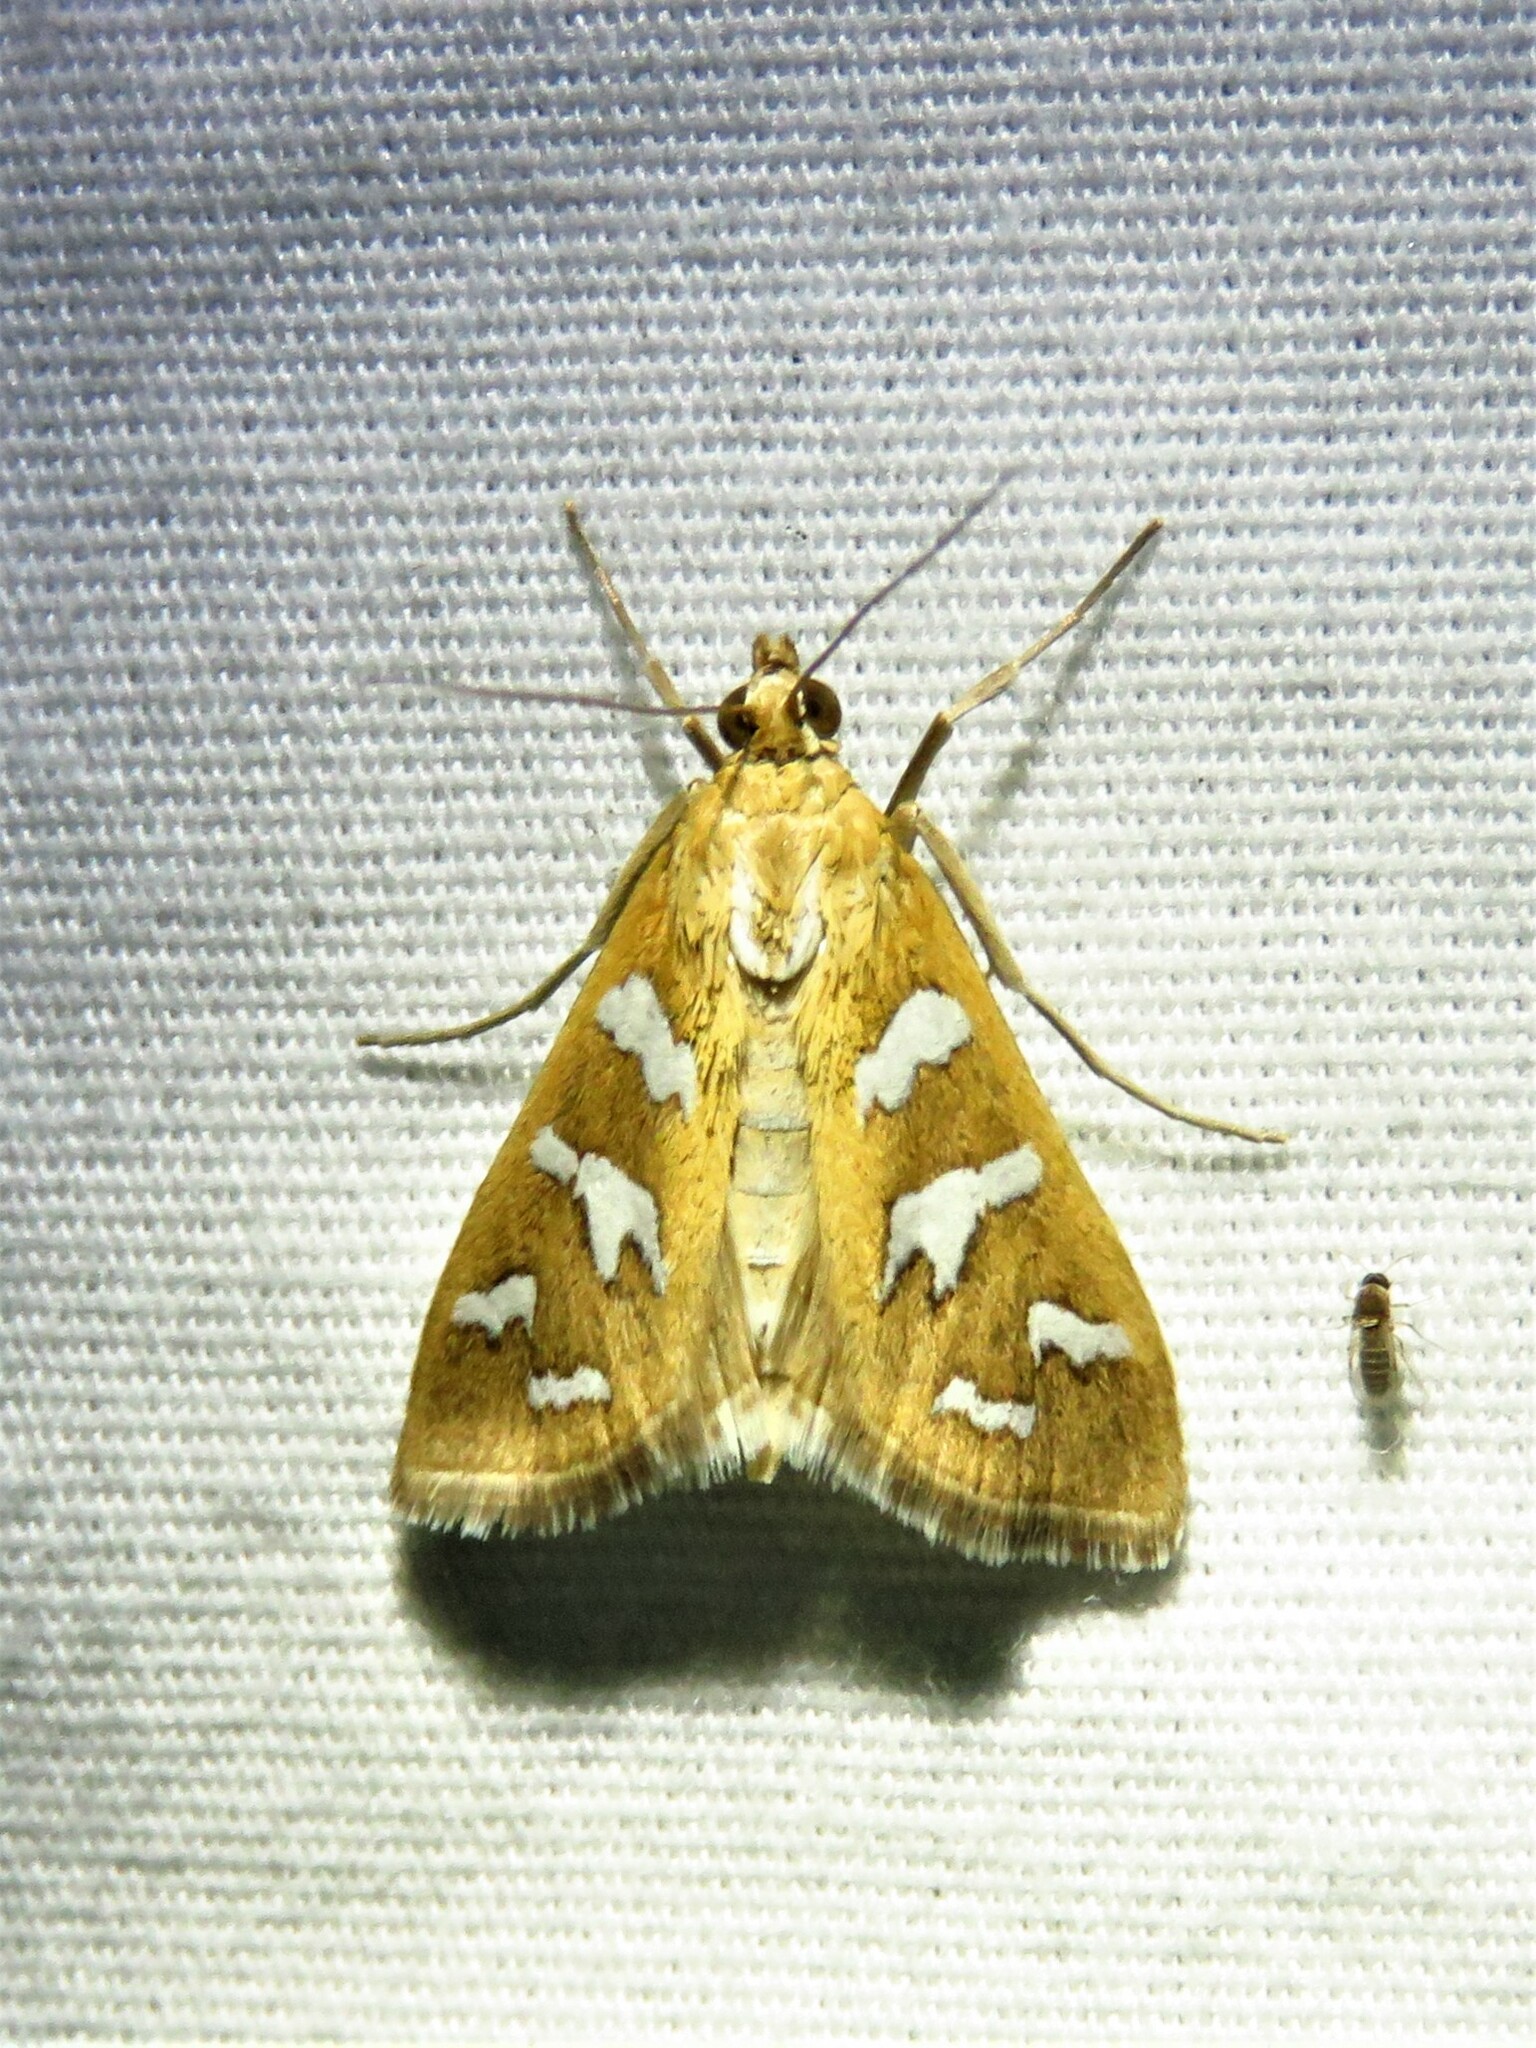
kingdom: Animalia
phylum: Arthropoda
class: Insecta
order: Lepidoptera
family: Crambidae
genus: Diastictis
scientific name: Diastictis fracturalis
